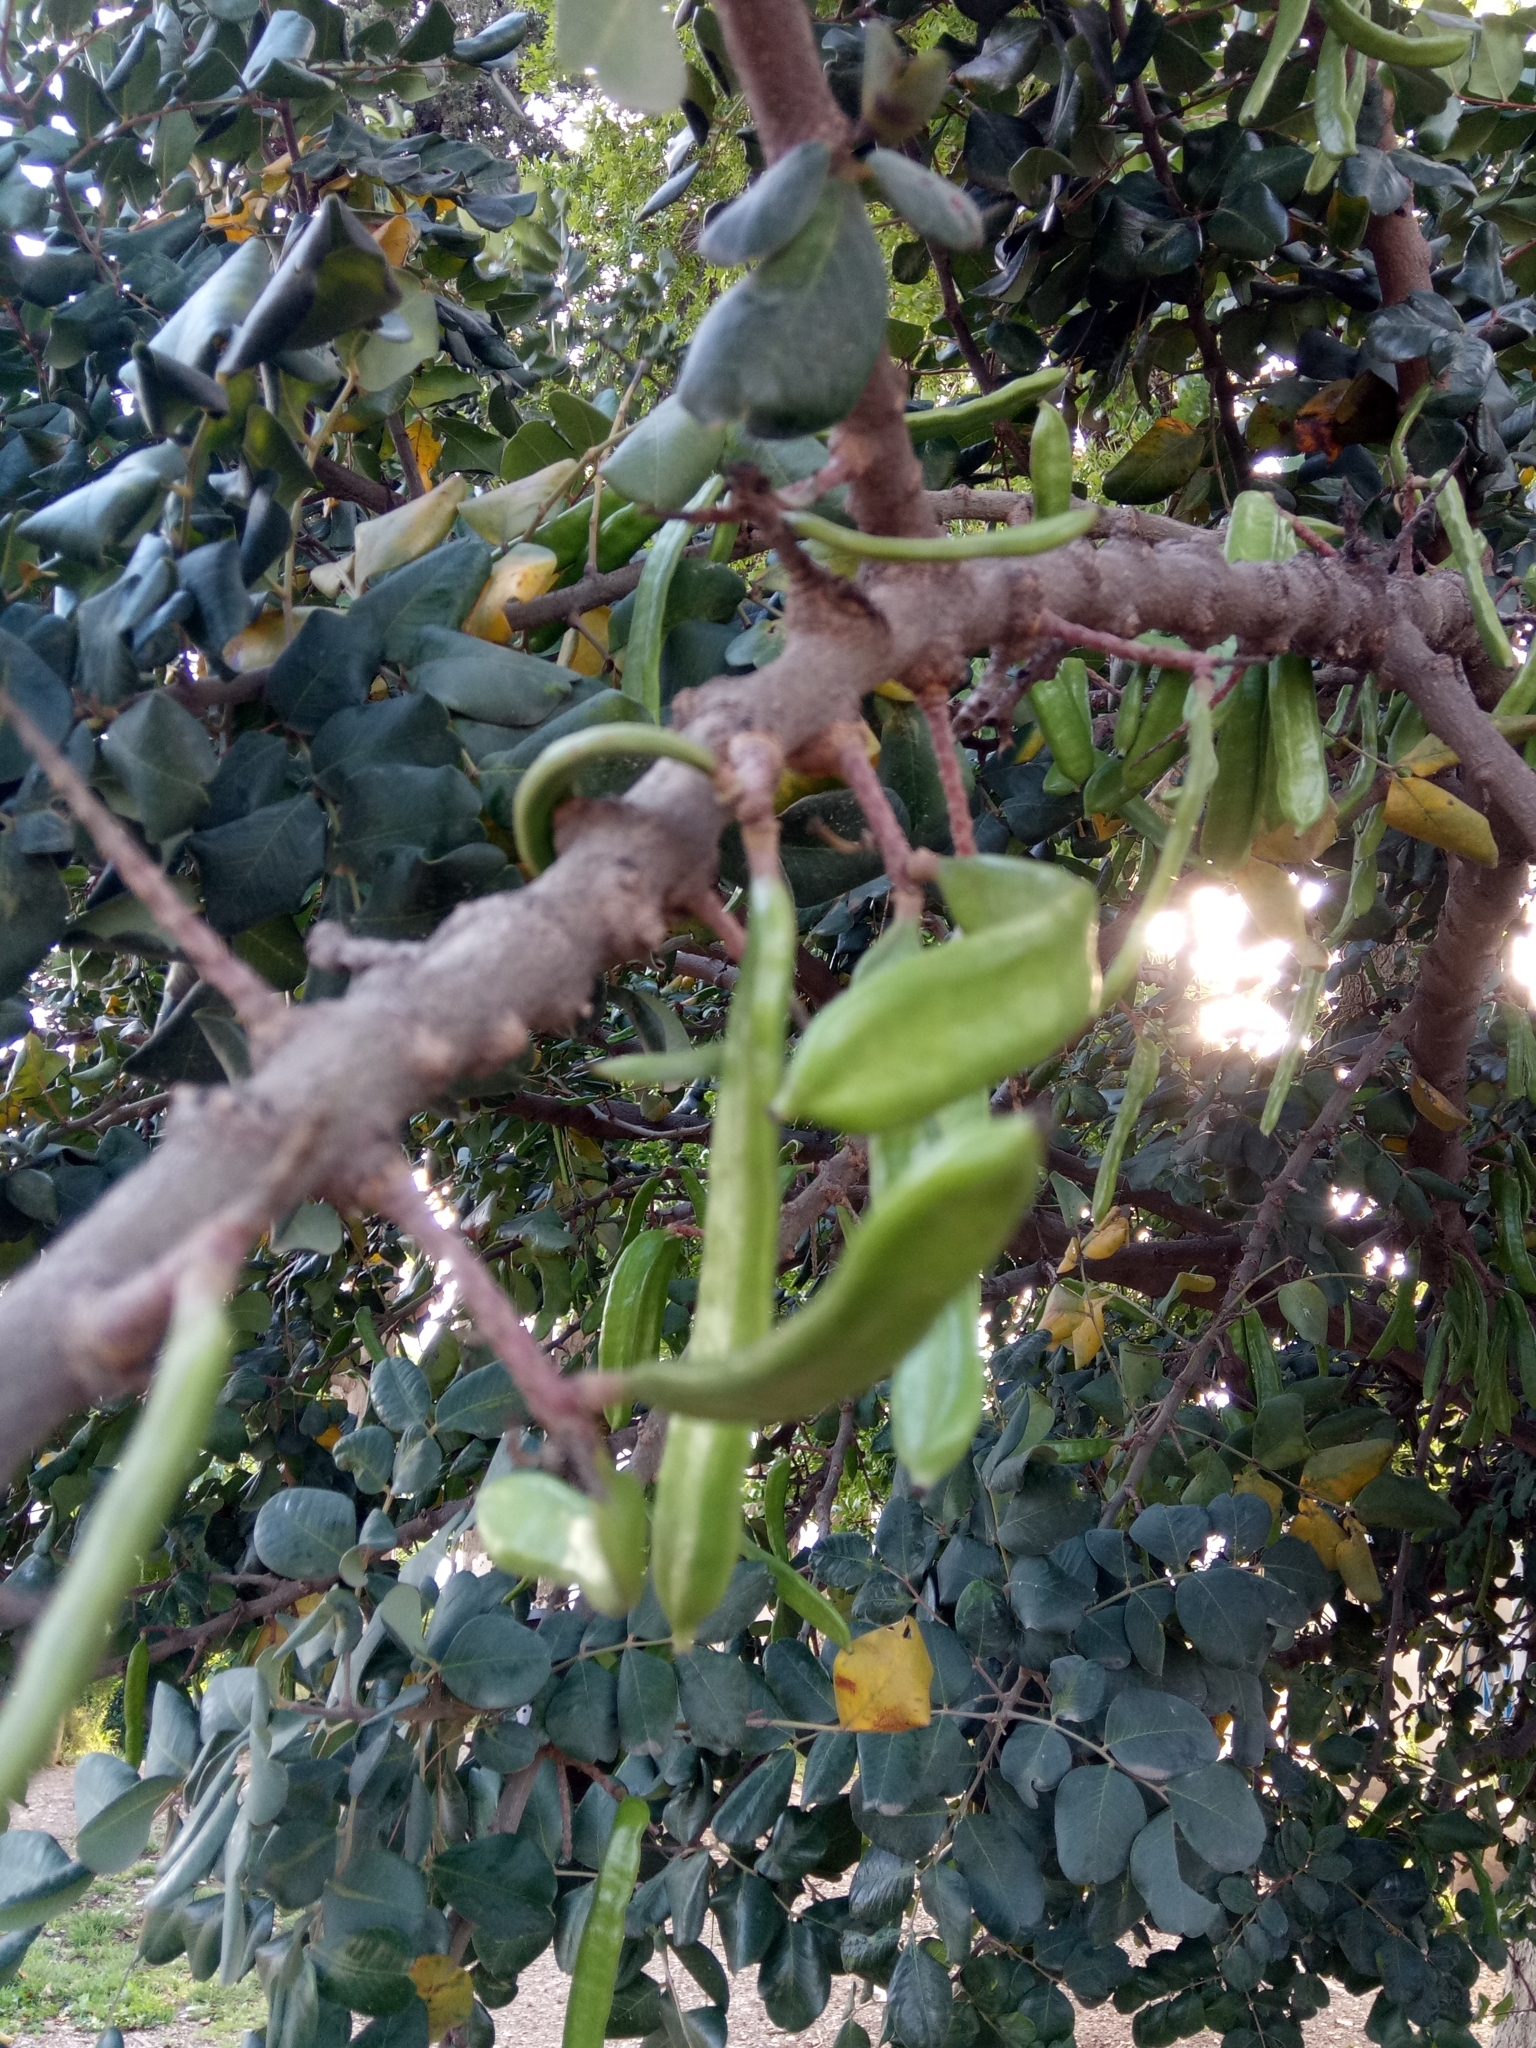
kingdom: Plantae
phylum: Tracheophyta
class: Magnoliopsida
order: Fabales
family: Fabaceae
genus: Ceratonia
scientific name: Ceratonia siliqua
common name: Carob
